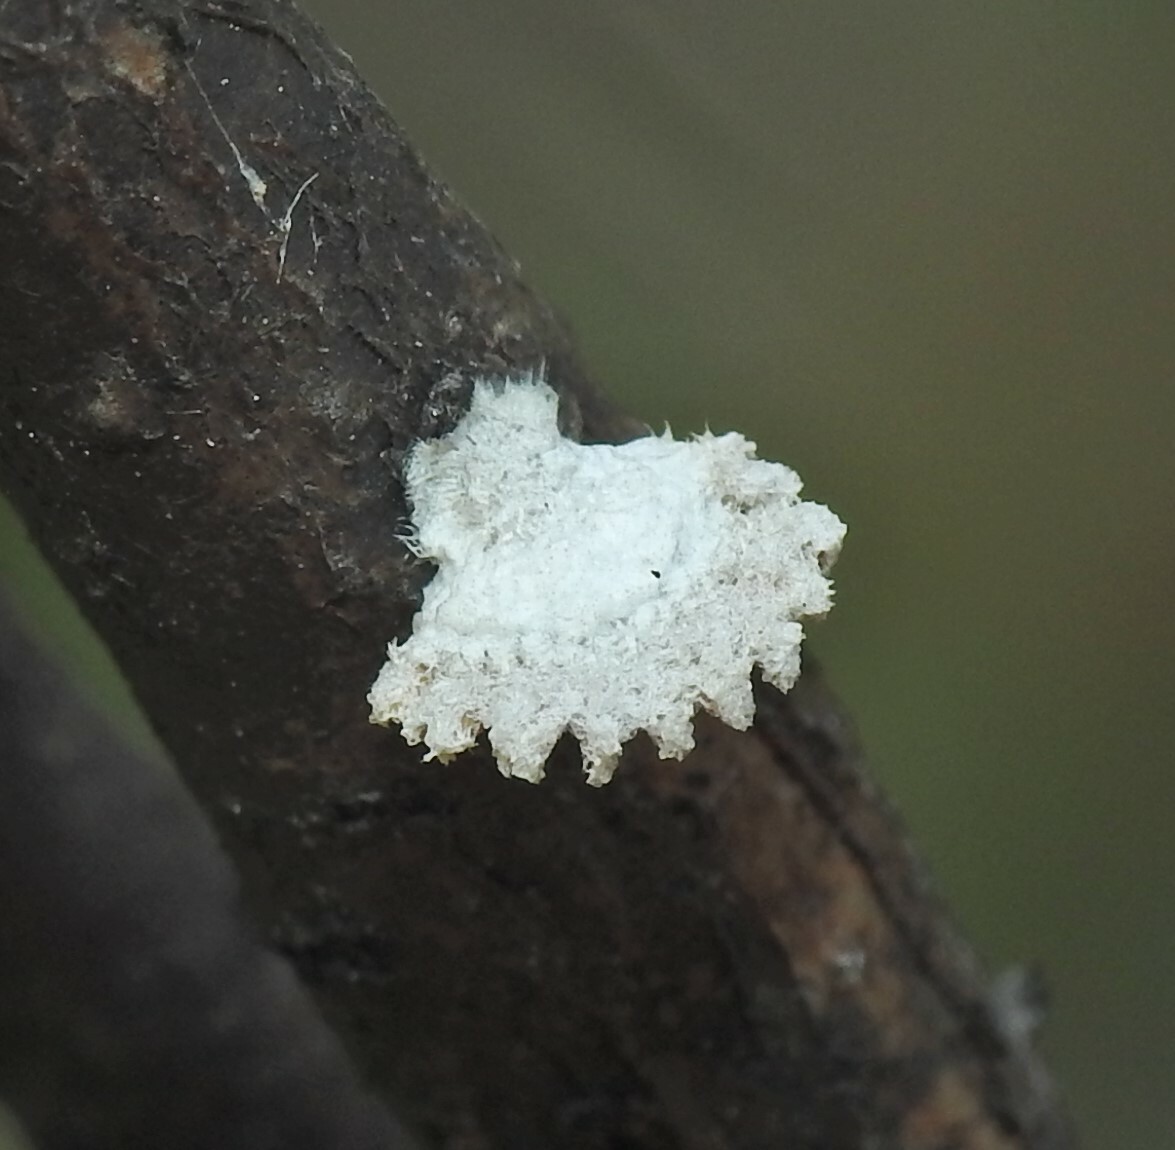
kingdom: Fungi
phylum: Basidiomycota
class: Agaricomycetes
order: Agaricales
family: Schizophyllaceae
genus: Schizophyllum
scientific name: Schizophyllum commune
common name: Common porecrust
